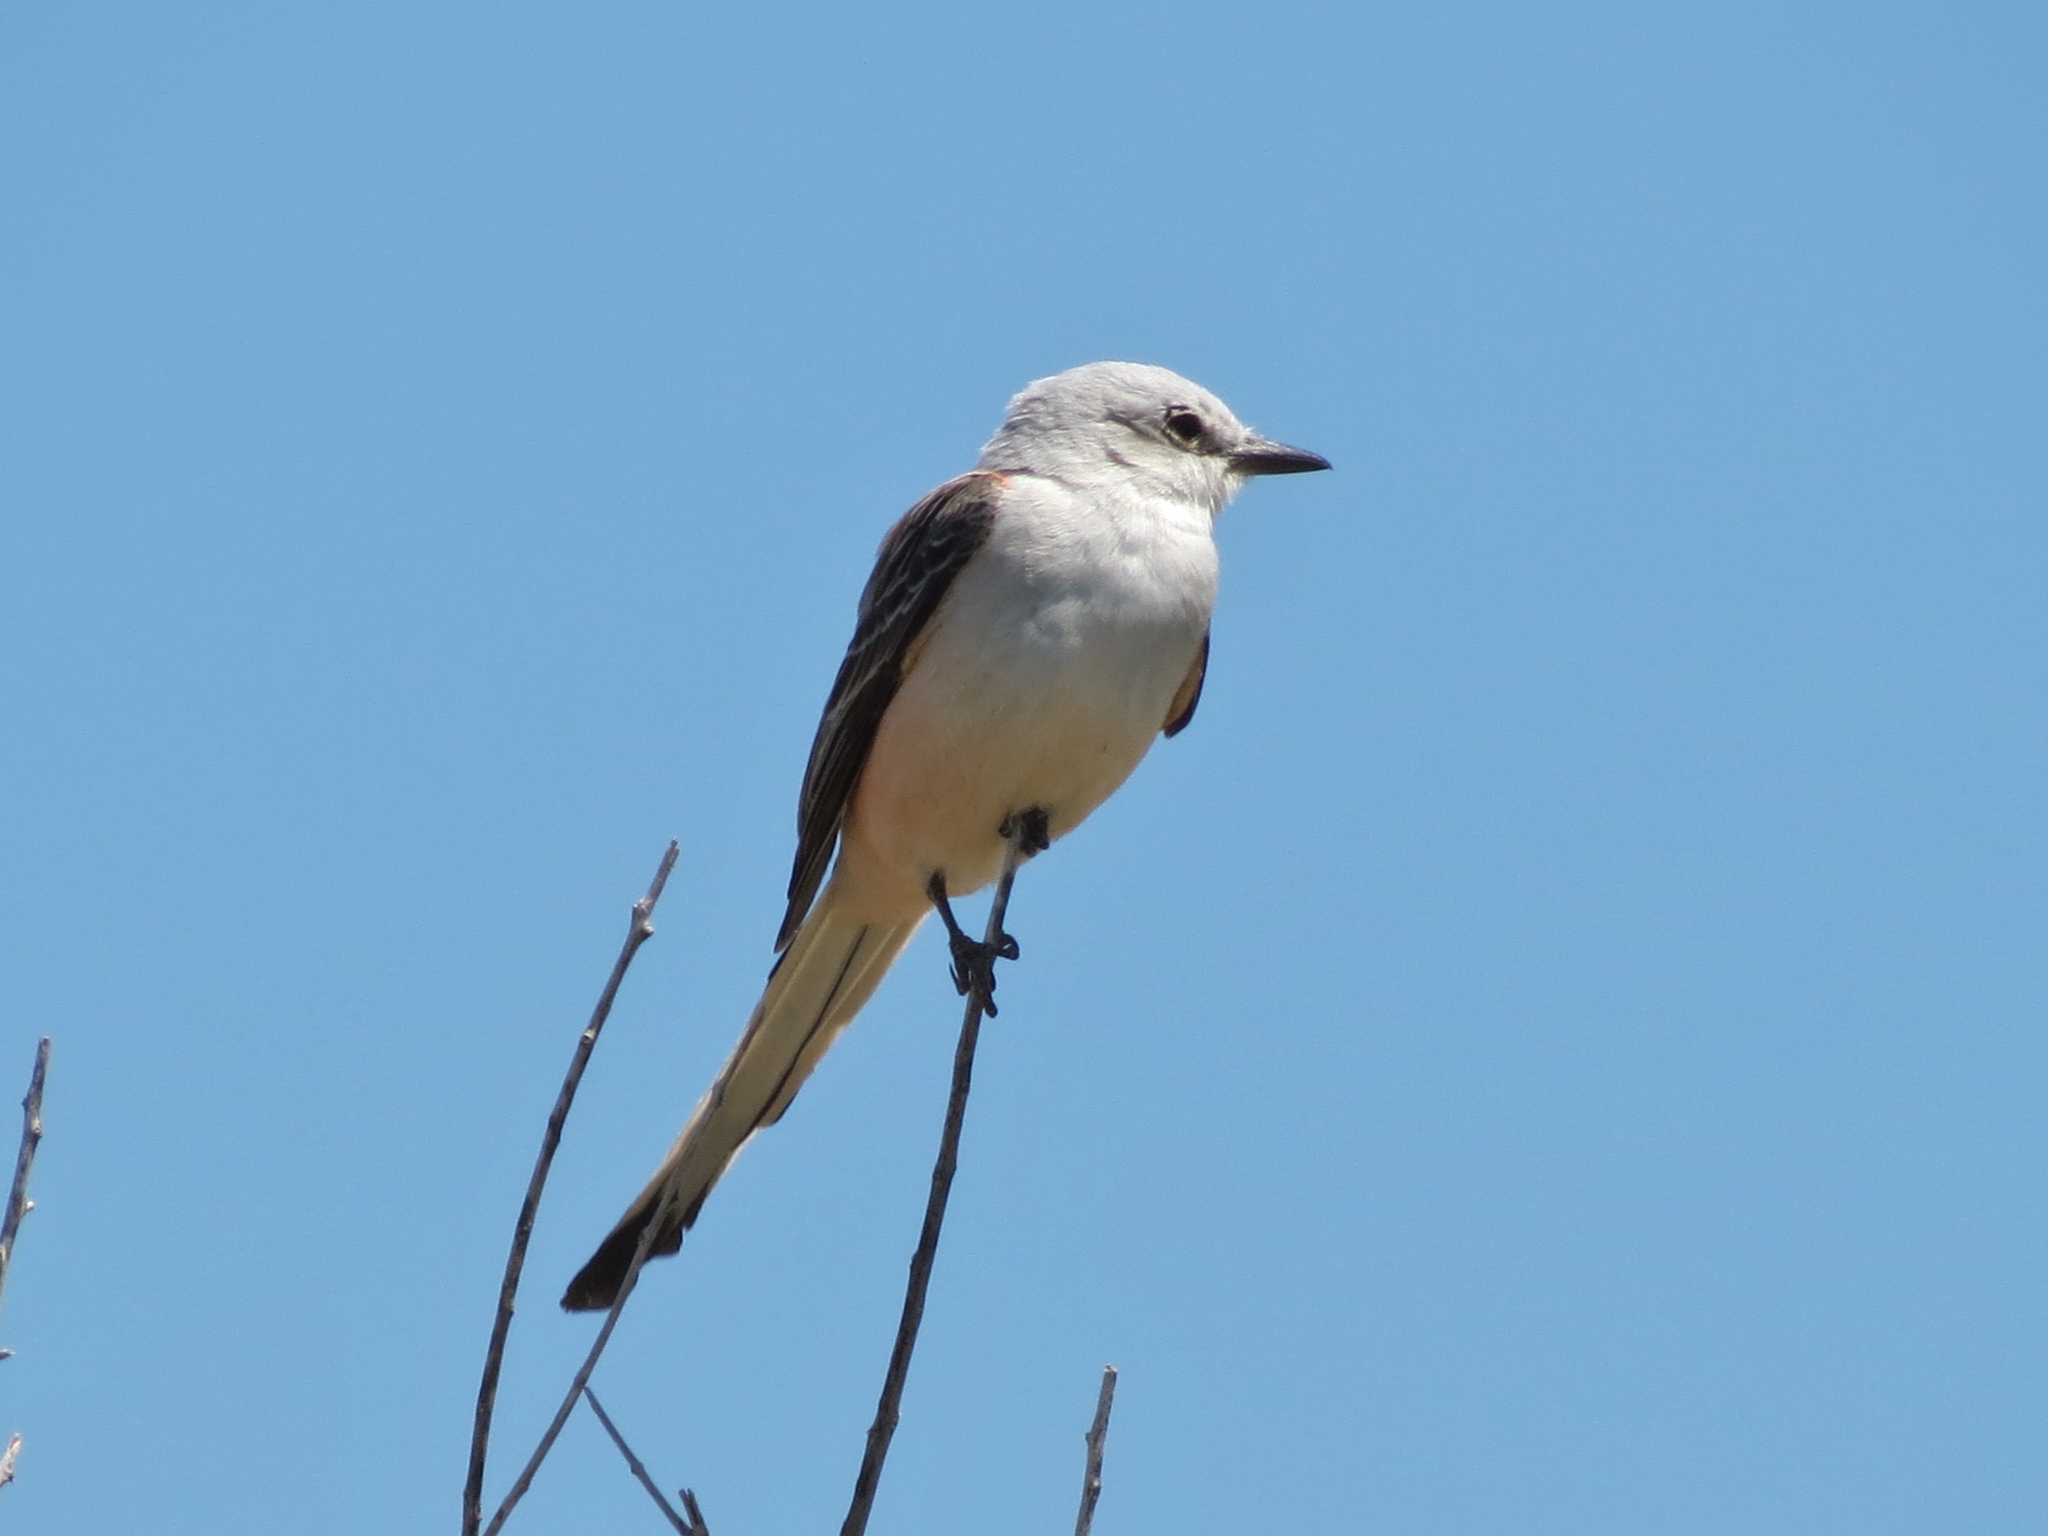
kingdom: Animalia
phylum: Chordata
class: Aves
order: Passeriformes
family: Tyrannidae
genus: Tyrannus
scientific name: Tyrannus forficatus
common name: Scissor-tailed flycatcher
